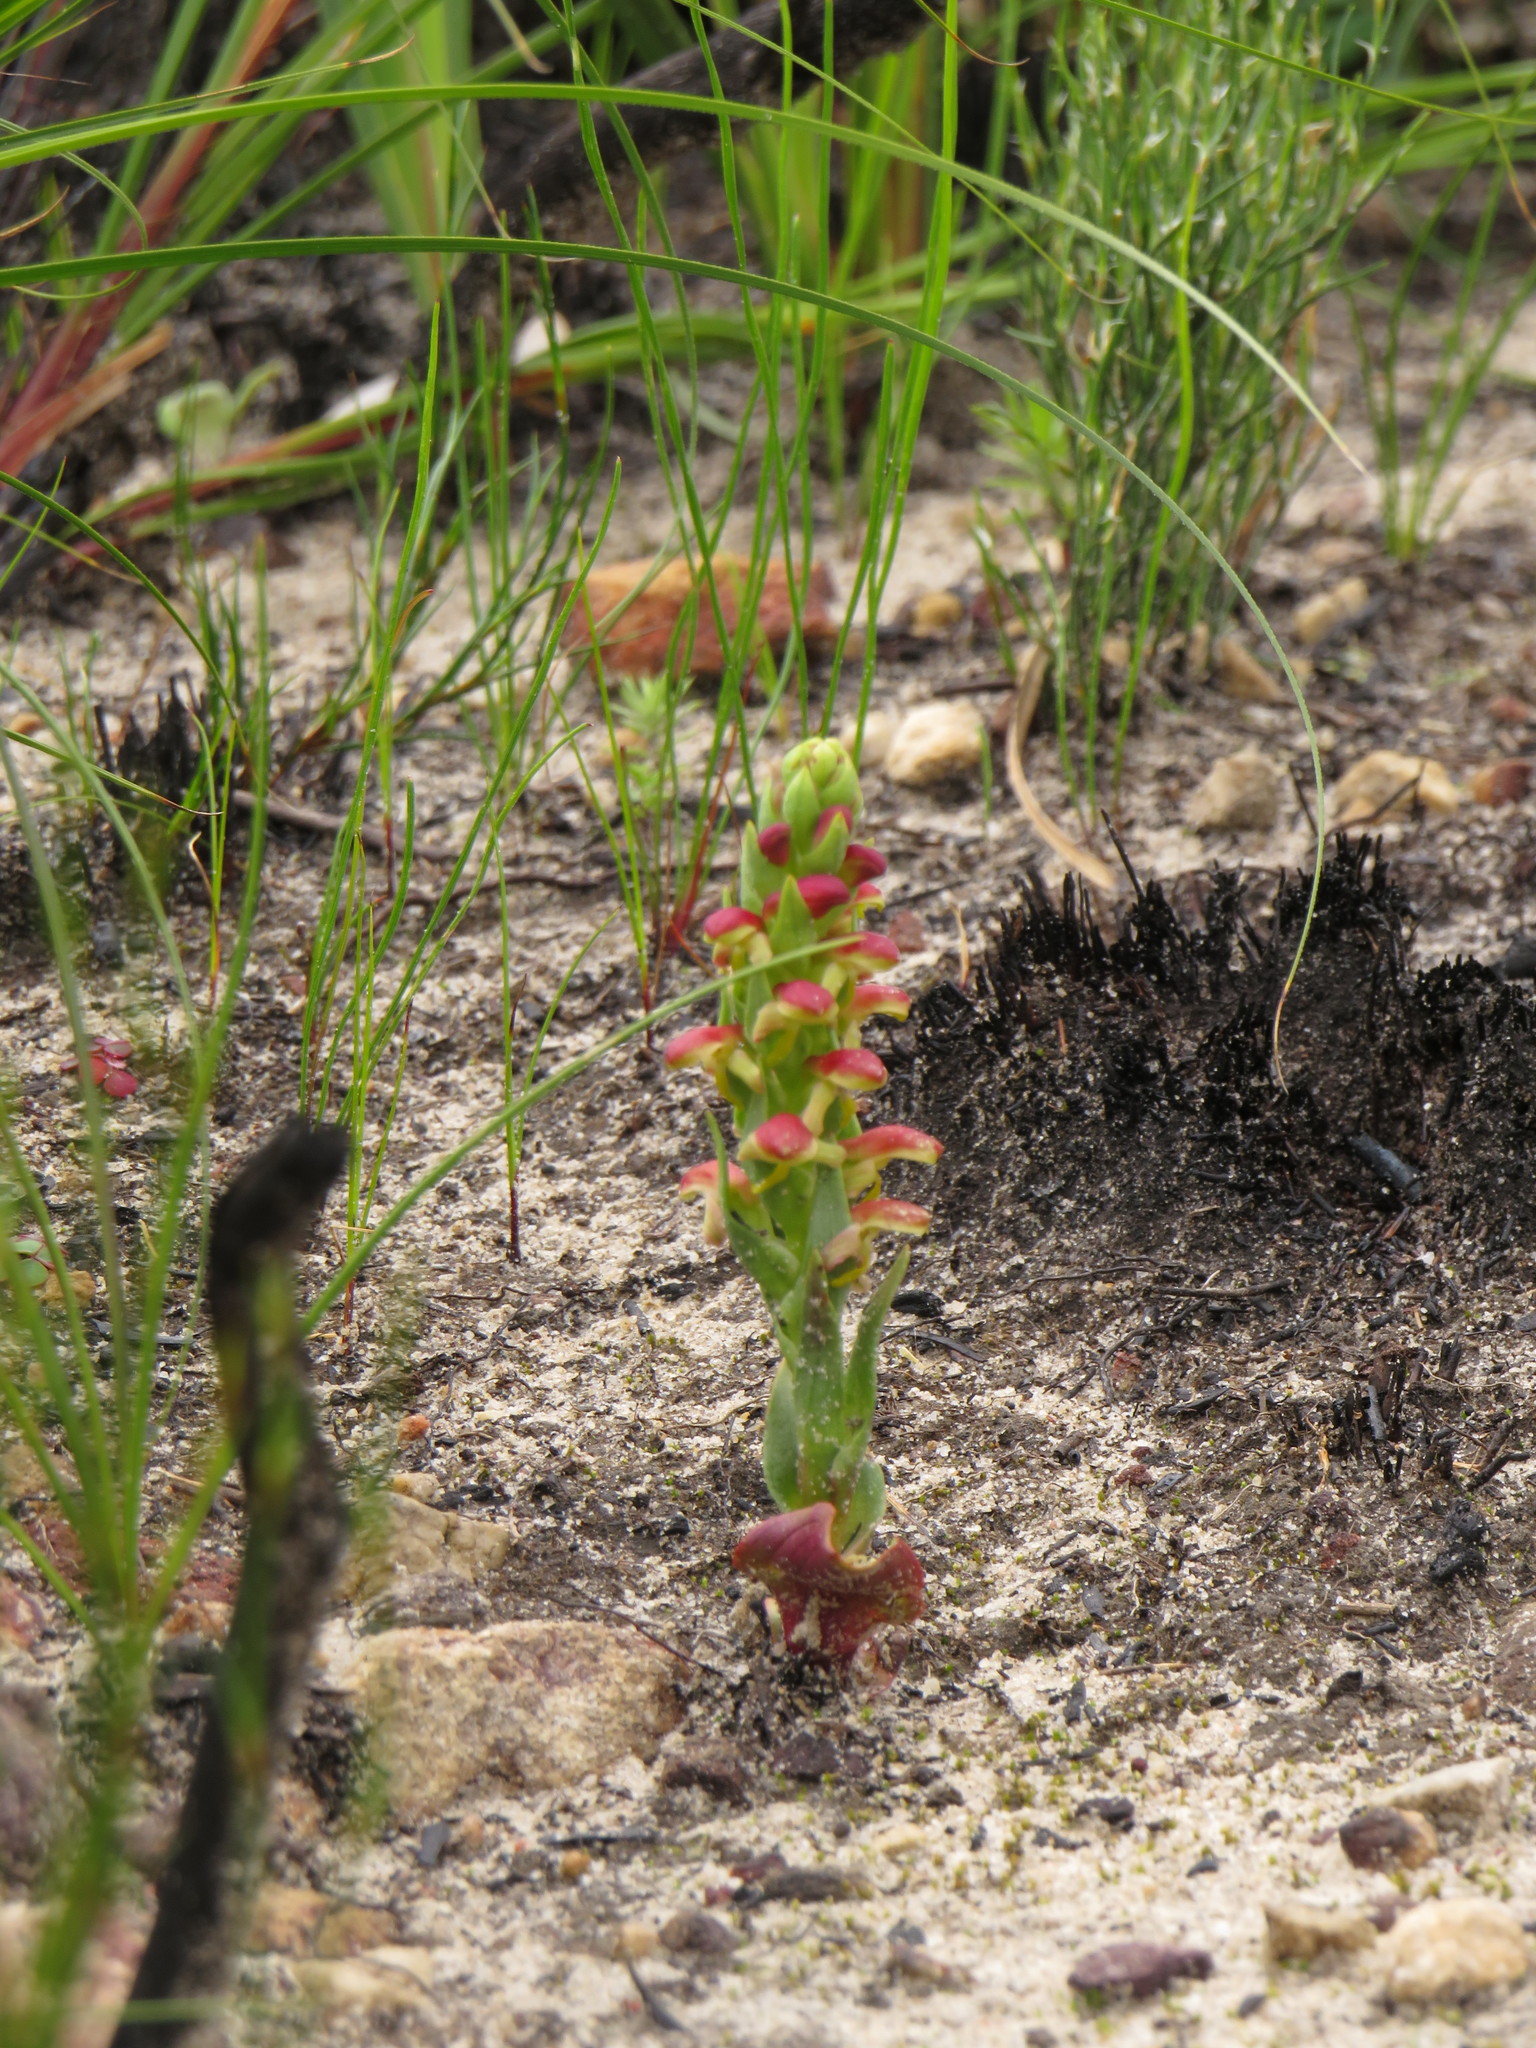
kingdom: Plantae
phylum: Tracheophyta
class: Liliopsida
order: Asparagales
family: Orchidaceae
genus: Disa
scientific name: Disa pygmaea
